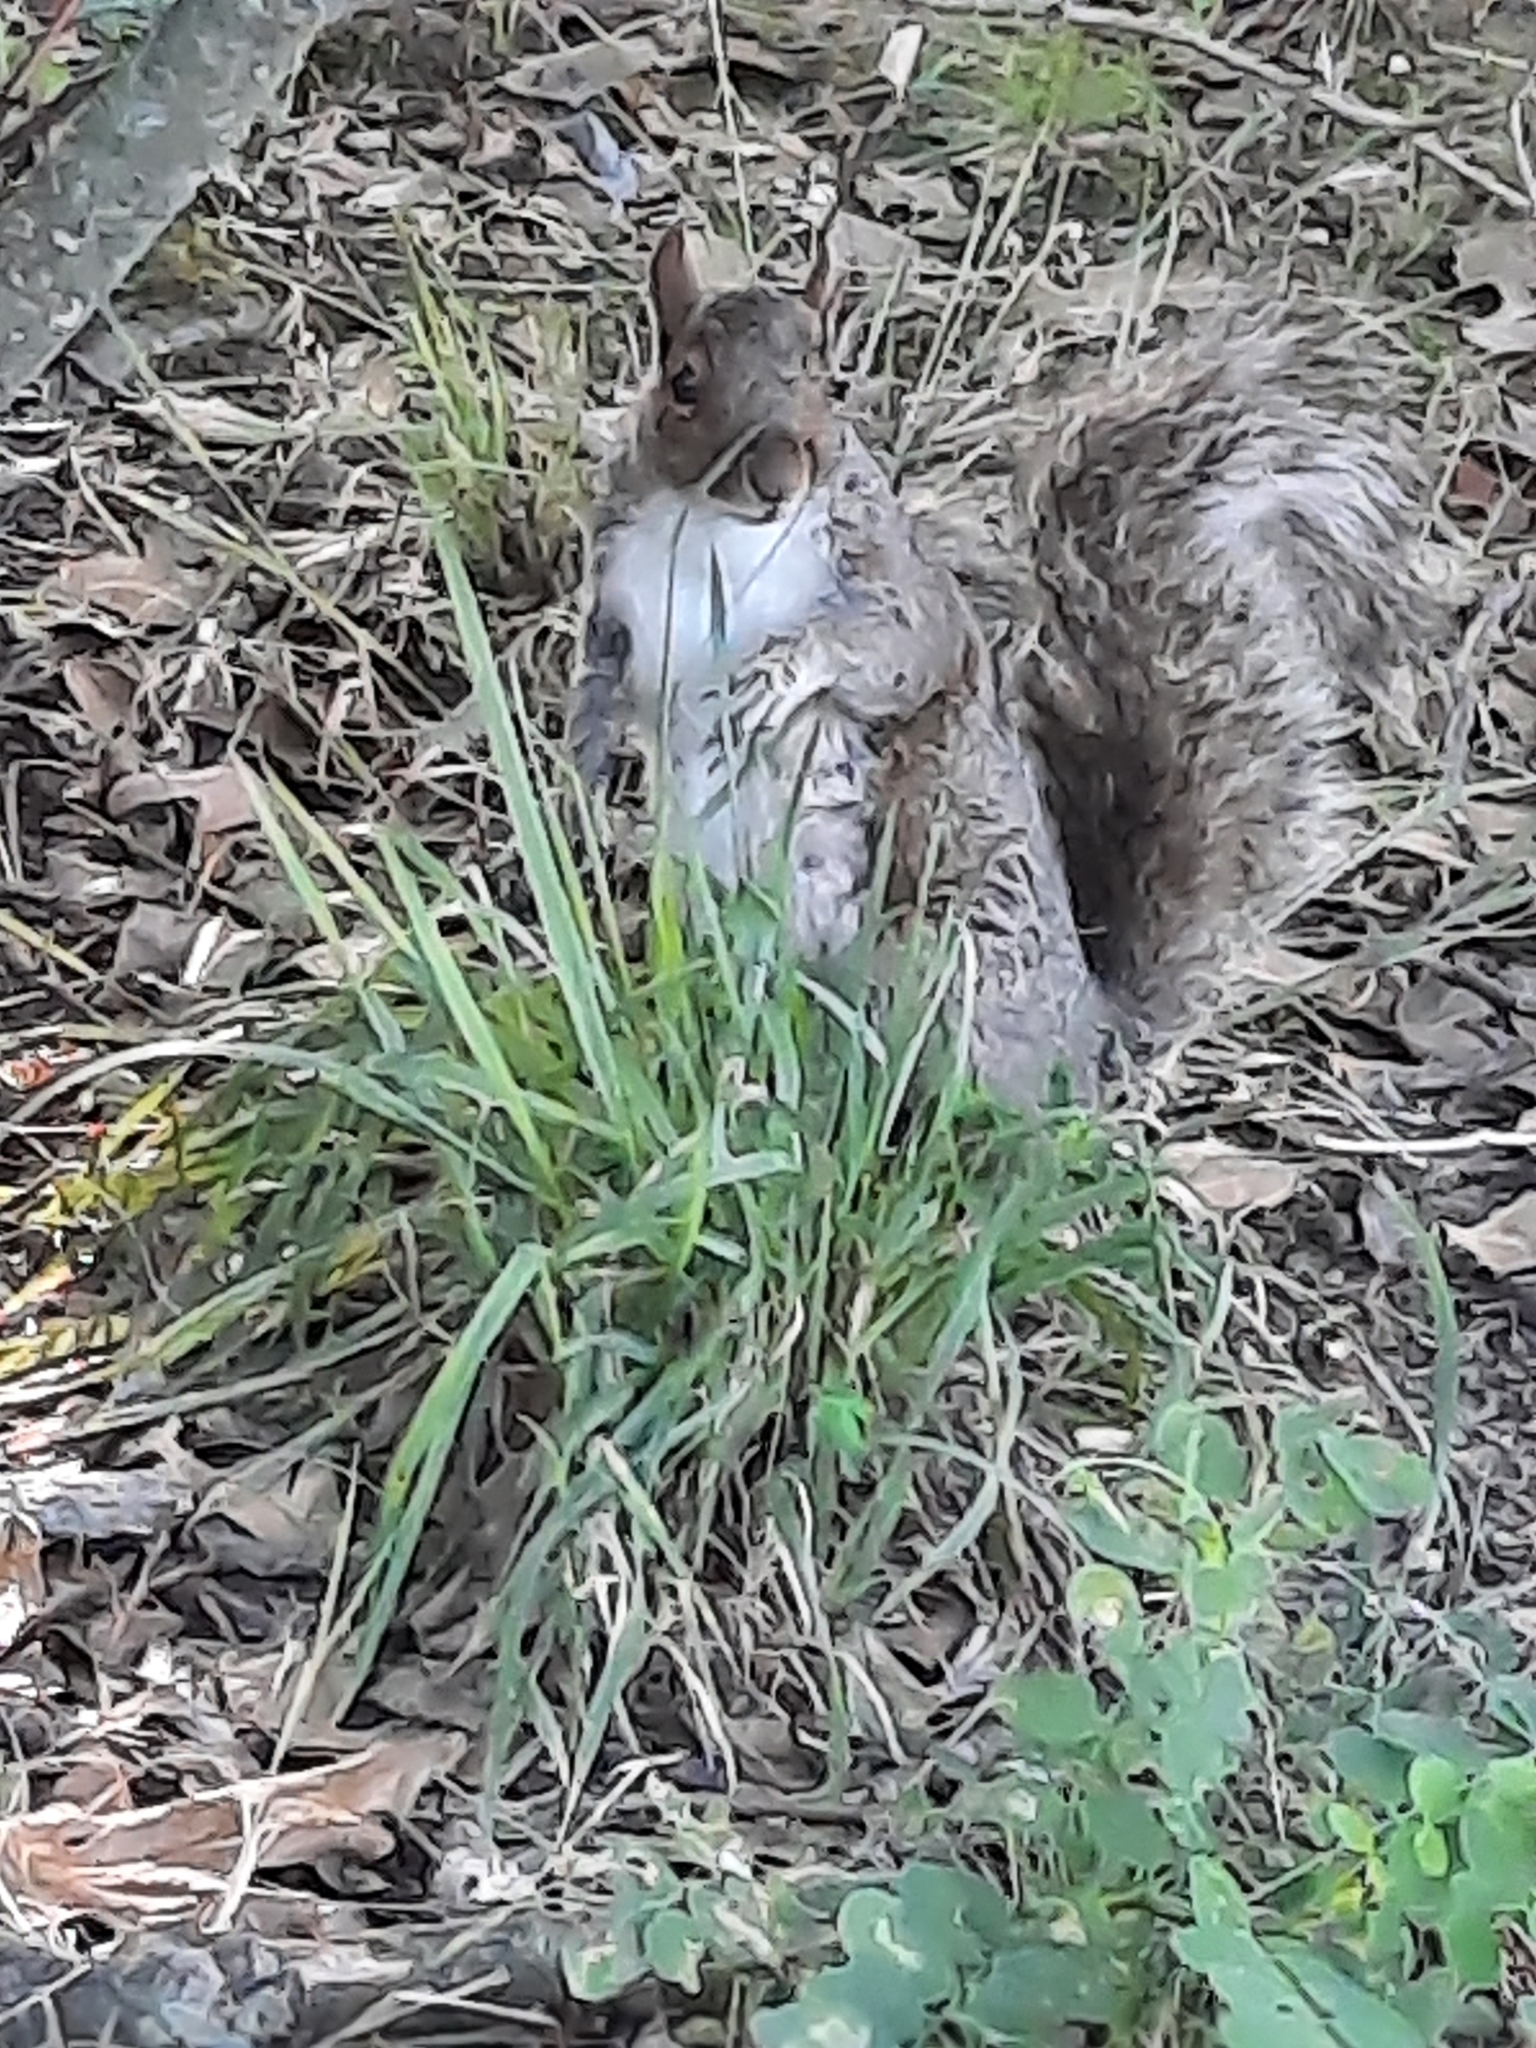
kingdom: Animalia
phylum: Chordata
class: Mammalia
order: Rodentia
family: Sciuridae
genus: Sciurus
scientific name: Sciurus carolinensis
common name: Eastern gray squirrel
